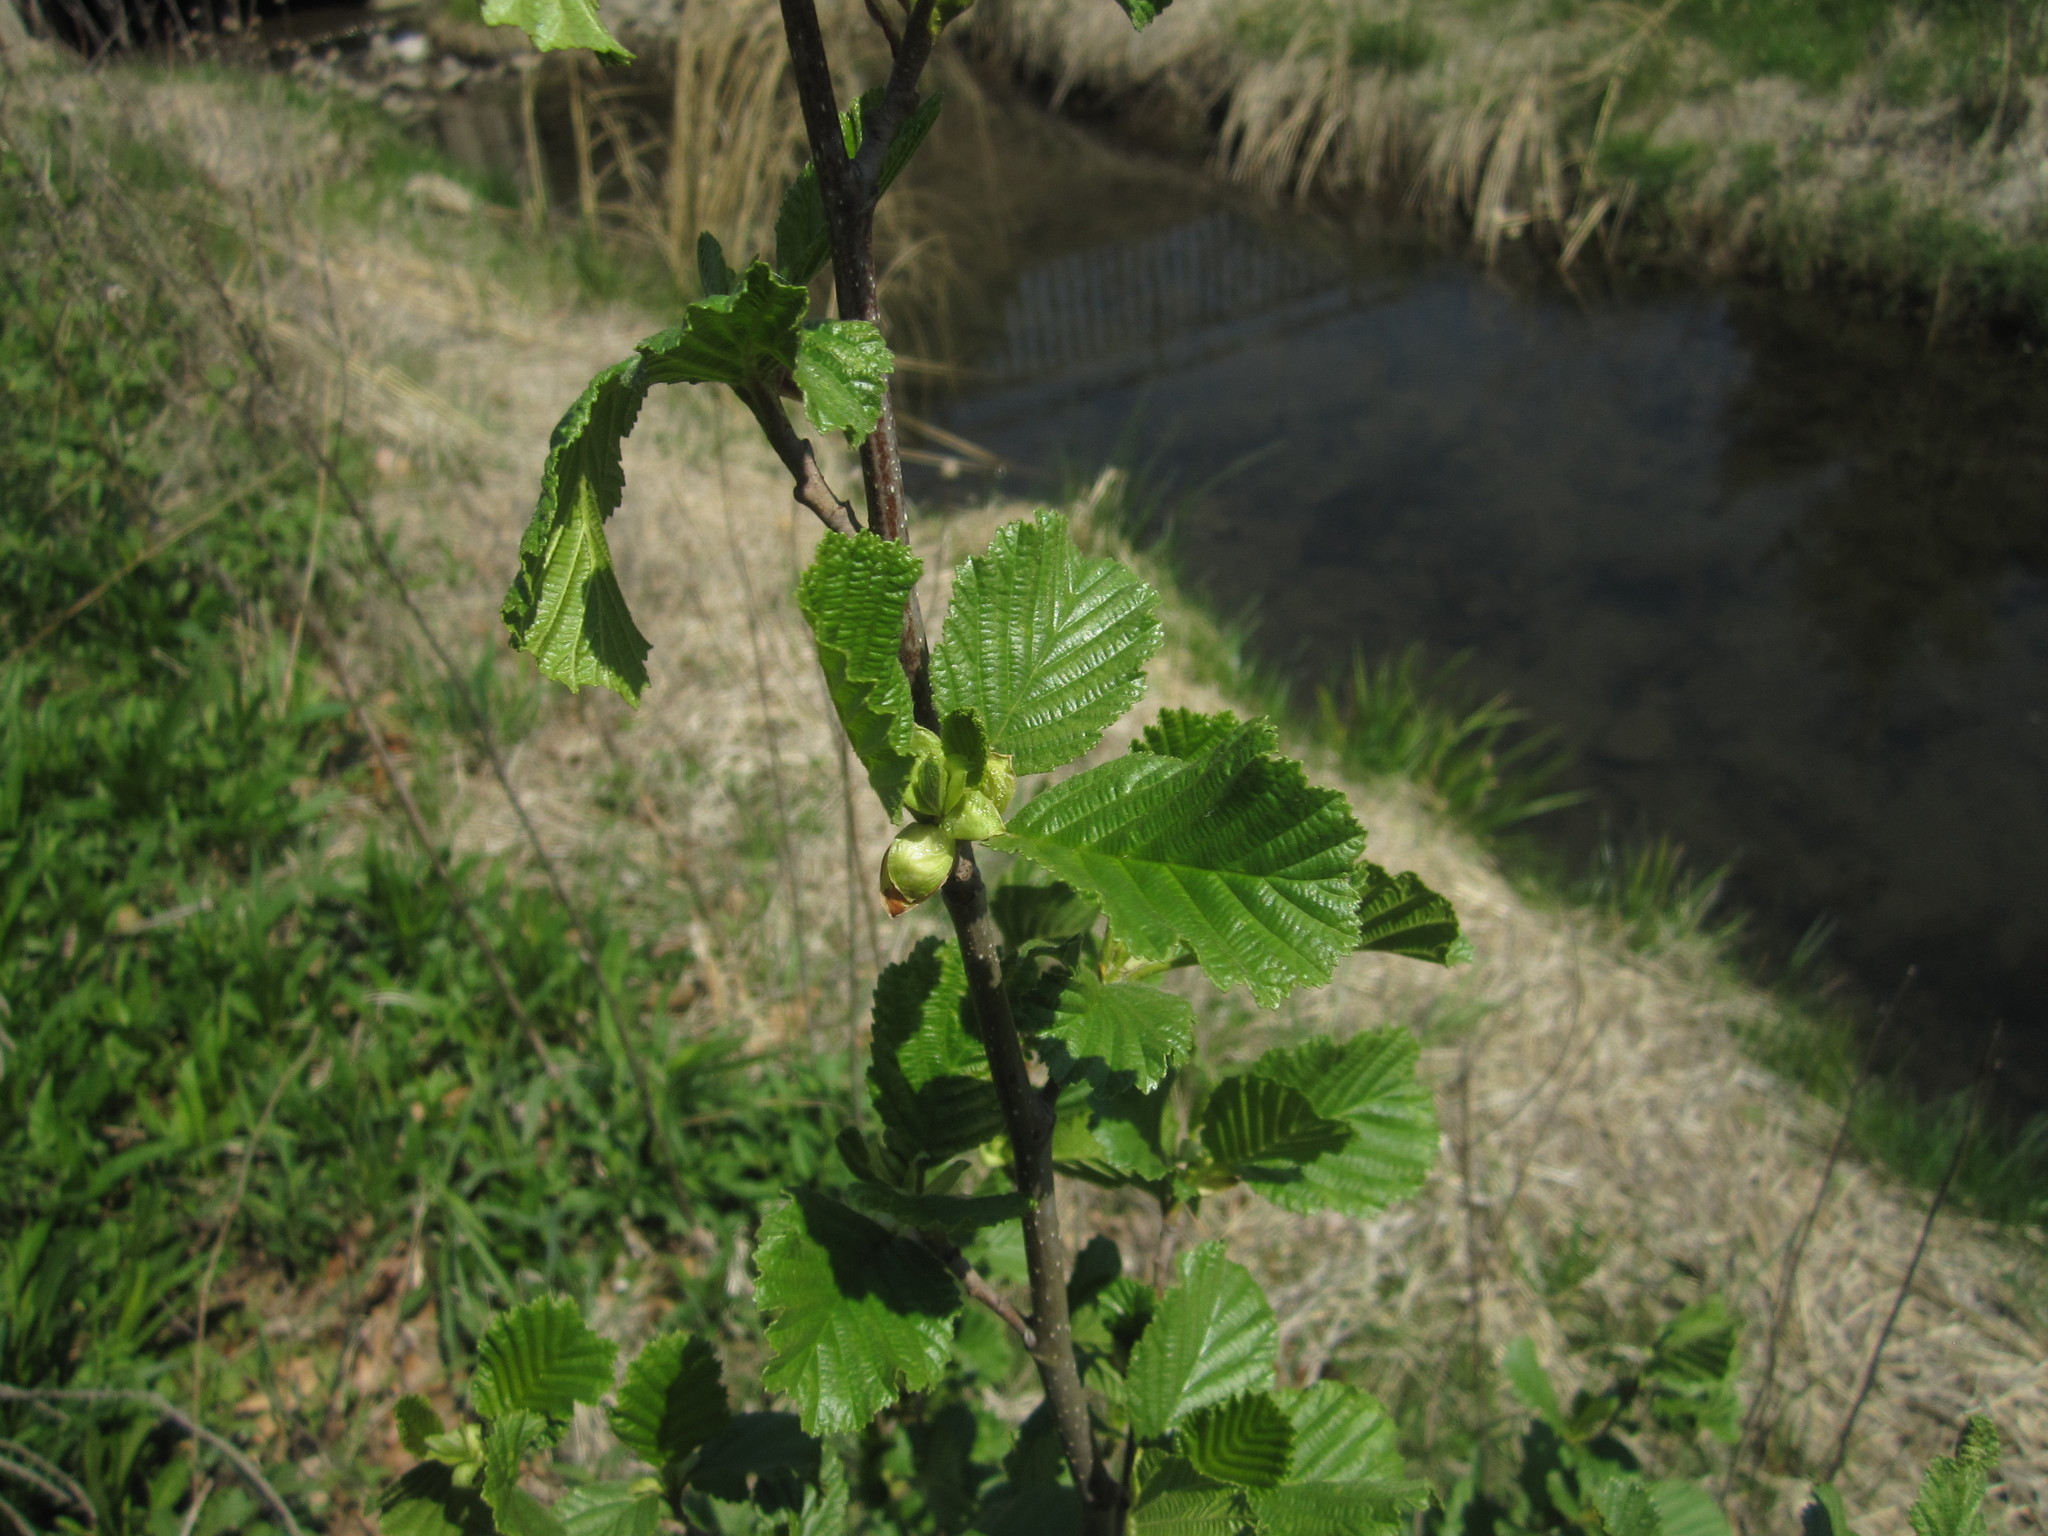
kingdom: Plantae
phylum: Tracheophyta
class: Magnoliopsida
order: Fagales
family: Betulaceae
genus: Alnus
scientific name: Alnus glutinosa
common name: Black alder
